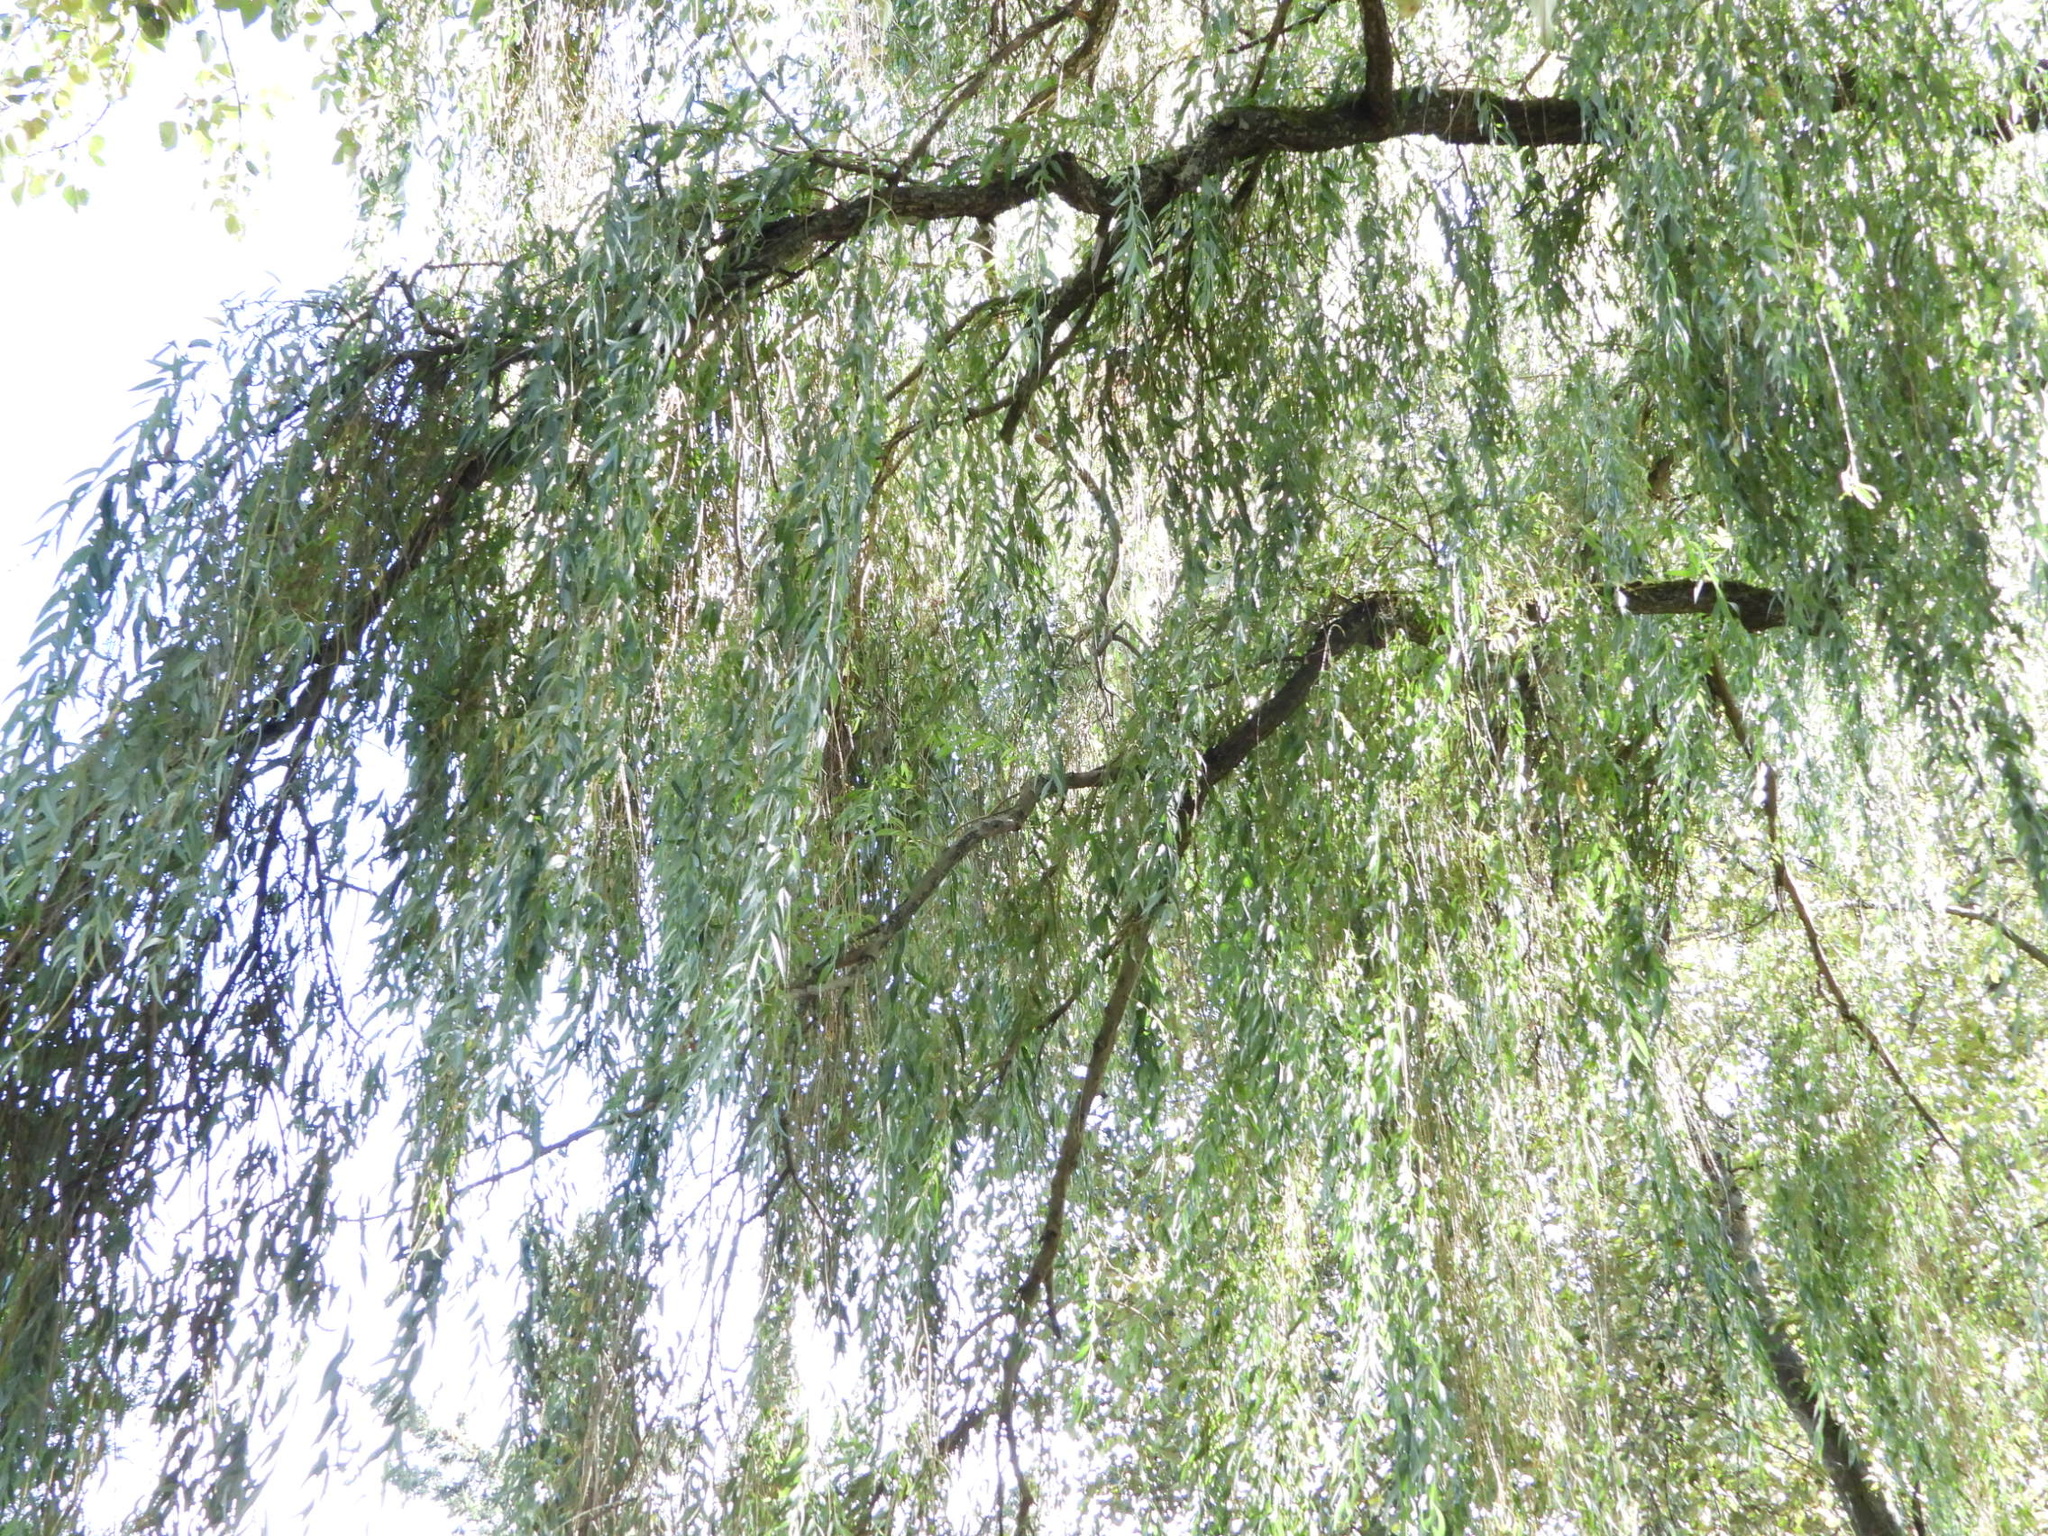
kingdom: Plantae
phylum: Tracheophyta
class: Magnoliopsida
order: Malpighiales
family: Salicaceae
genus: Salix
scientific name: Salix pendulina
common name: Wisconsin weeping willow
